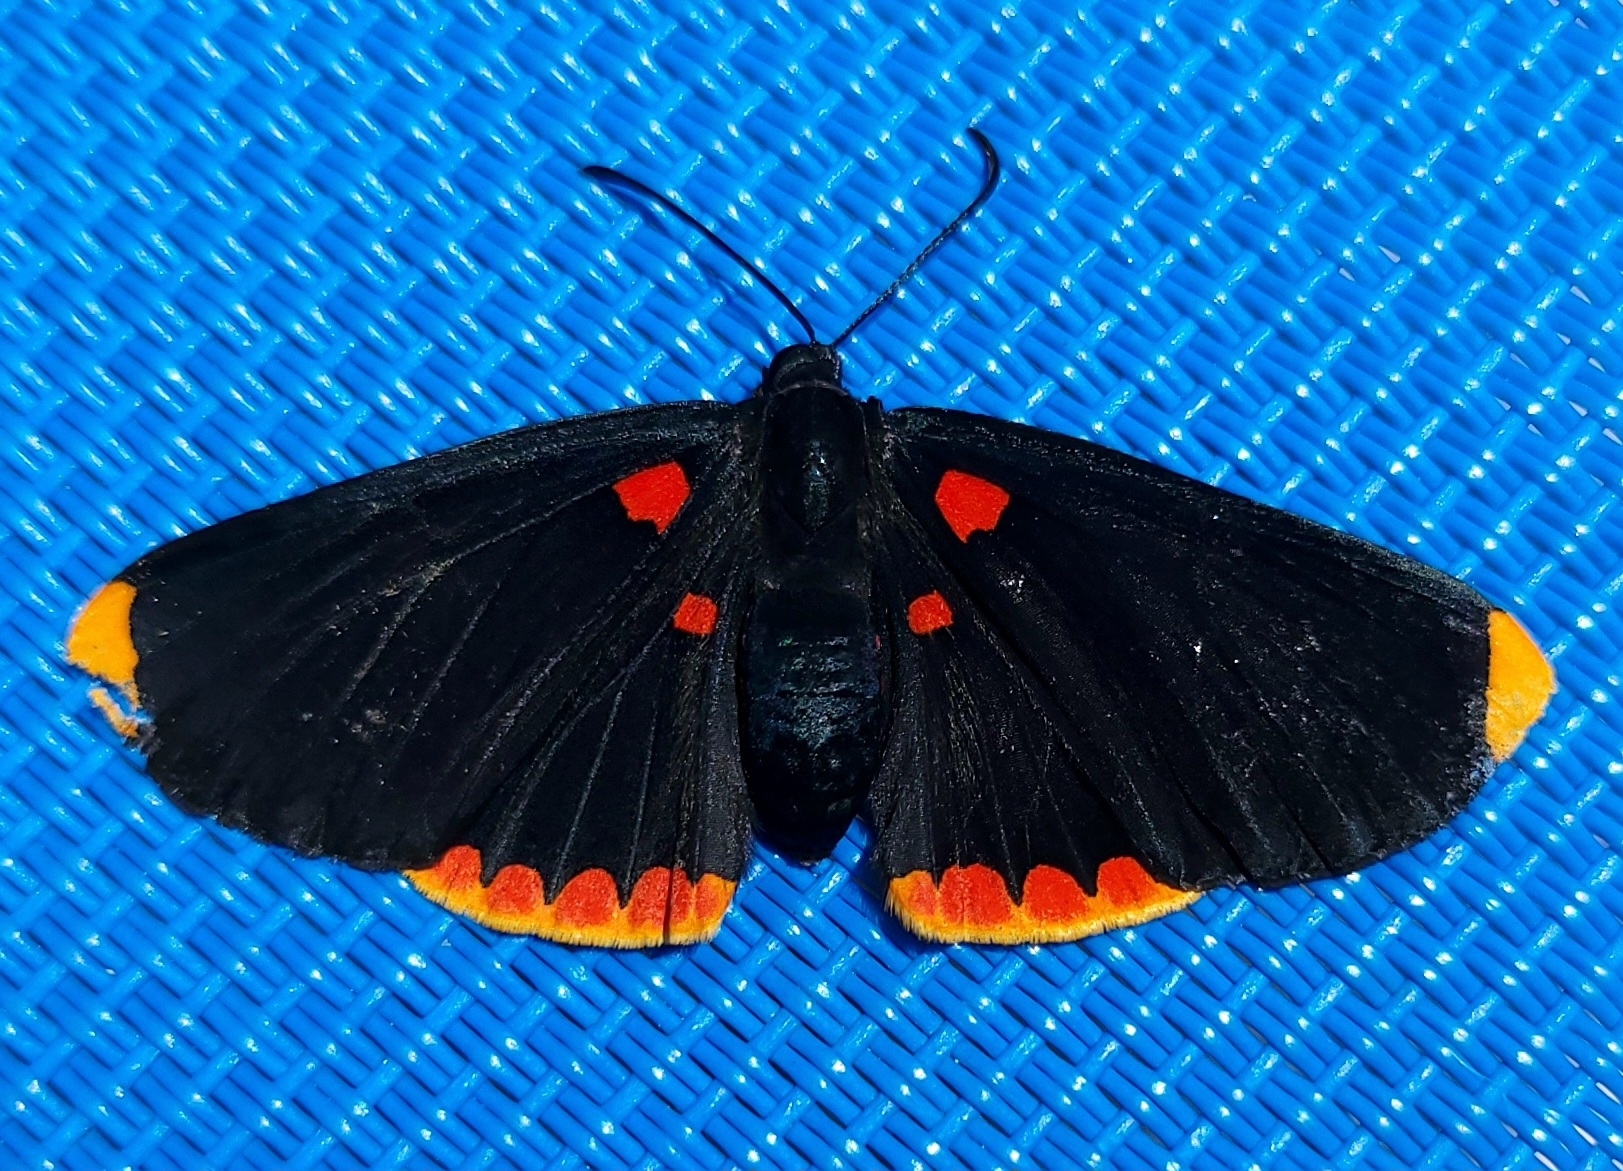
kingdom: Animalia
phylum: Arthropoda
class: Insecta
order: Lepidoptera
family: Lycaenidae
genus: Melanis
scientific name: Melanis pixe
